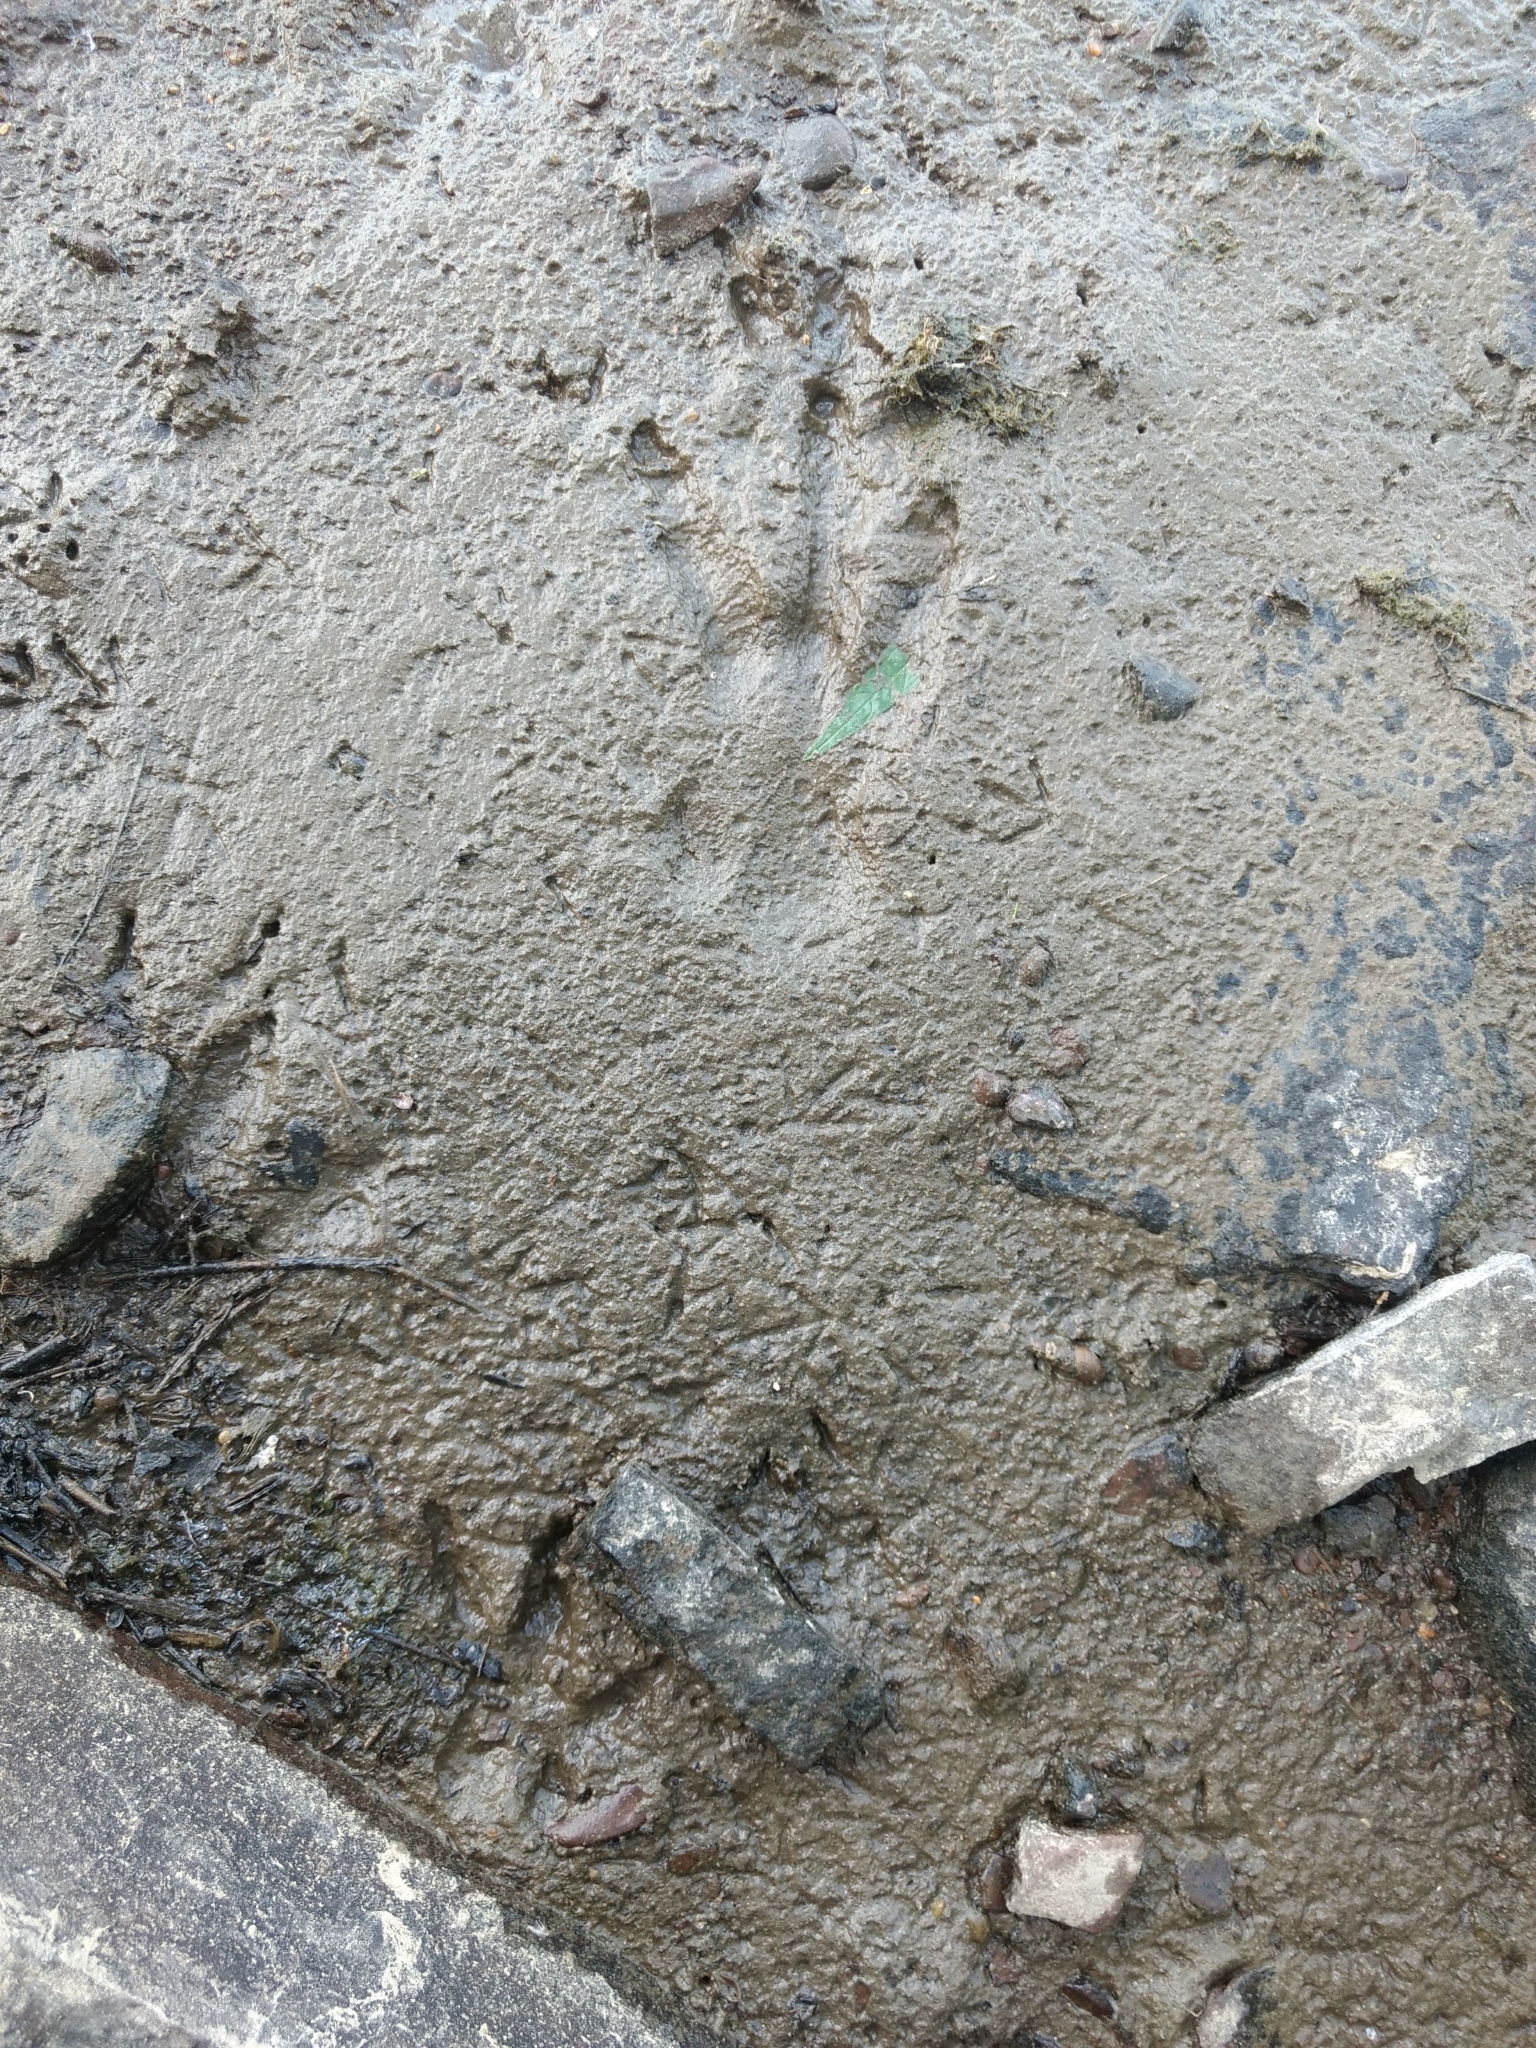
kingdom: Animalia
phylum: Chordata
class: Mammalia
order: Rodentia
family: Castoridae
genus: Castor
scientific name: Castor canadensis
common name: American beaver
